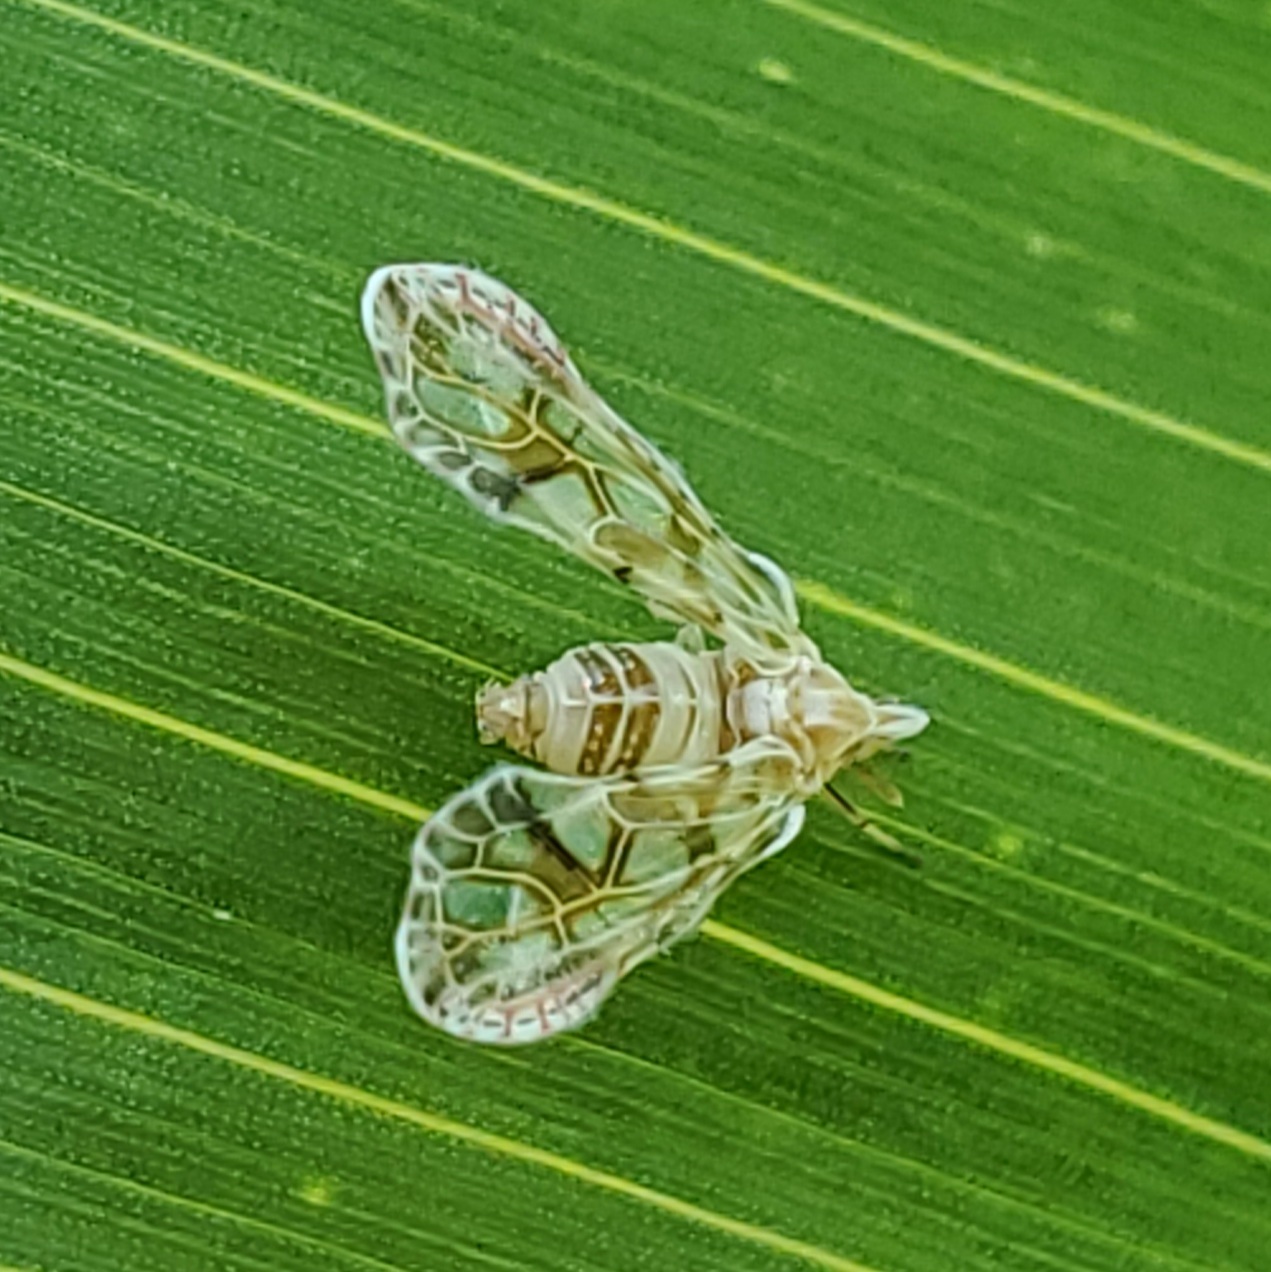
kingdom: Animalia
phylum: Arthropoda
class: Insecta
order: Hemiptera
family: Derbidae
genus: Anotia
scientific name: Anotia kirkaldyi
